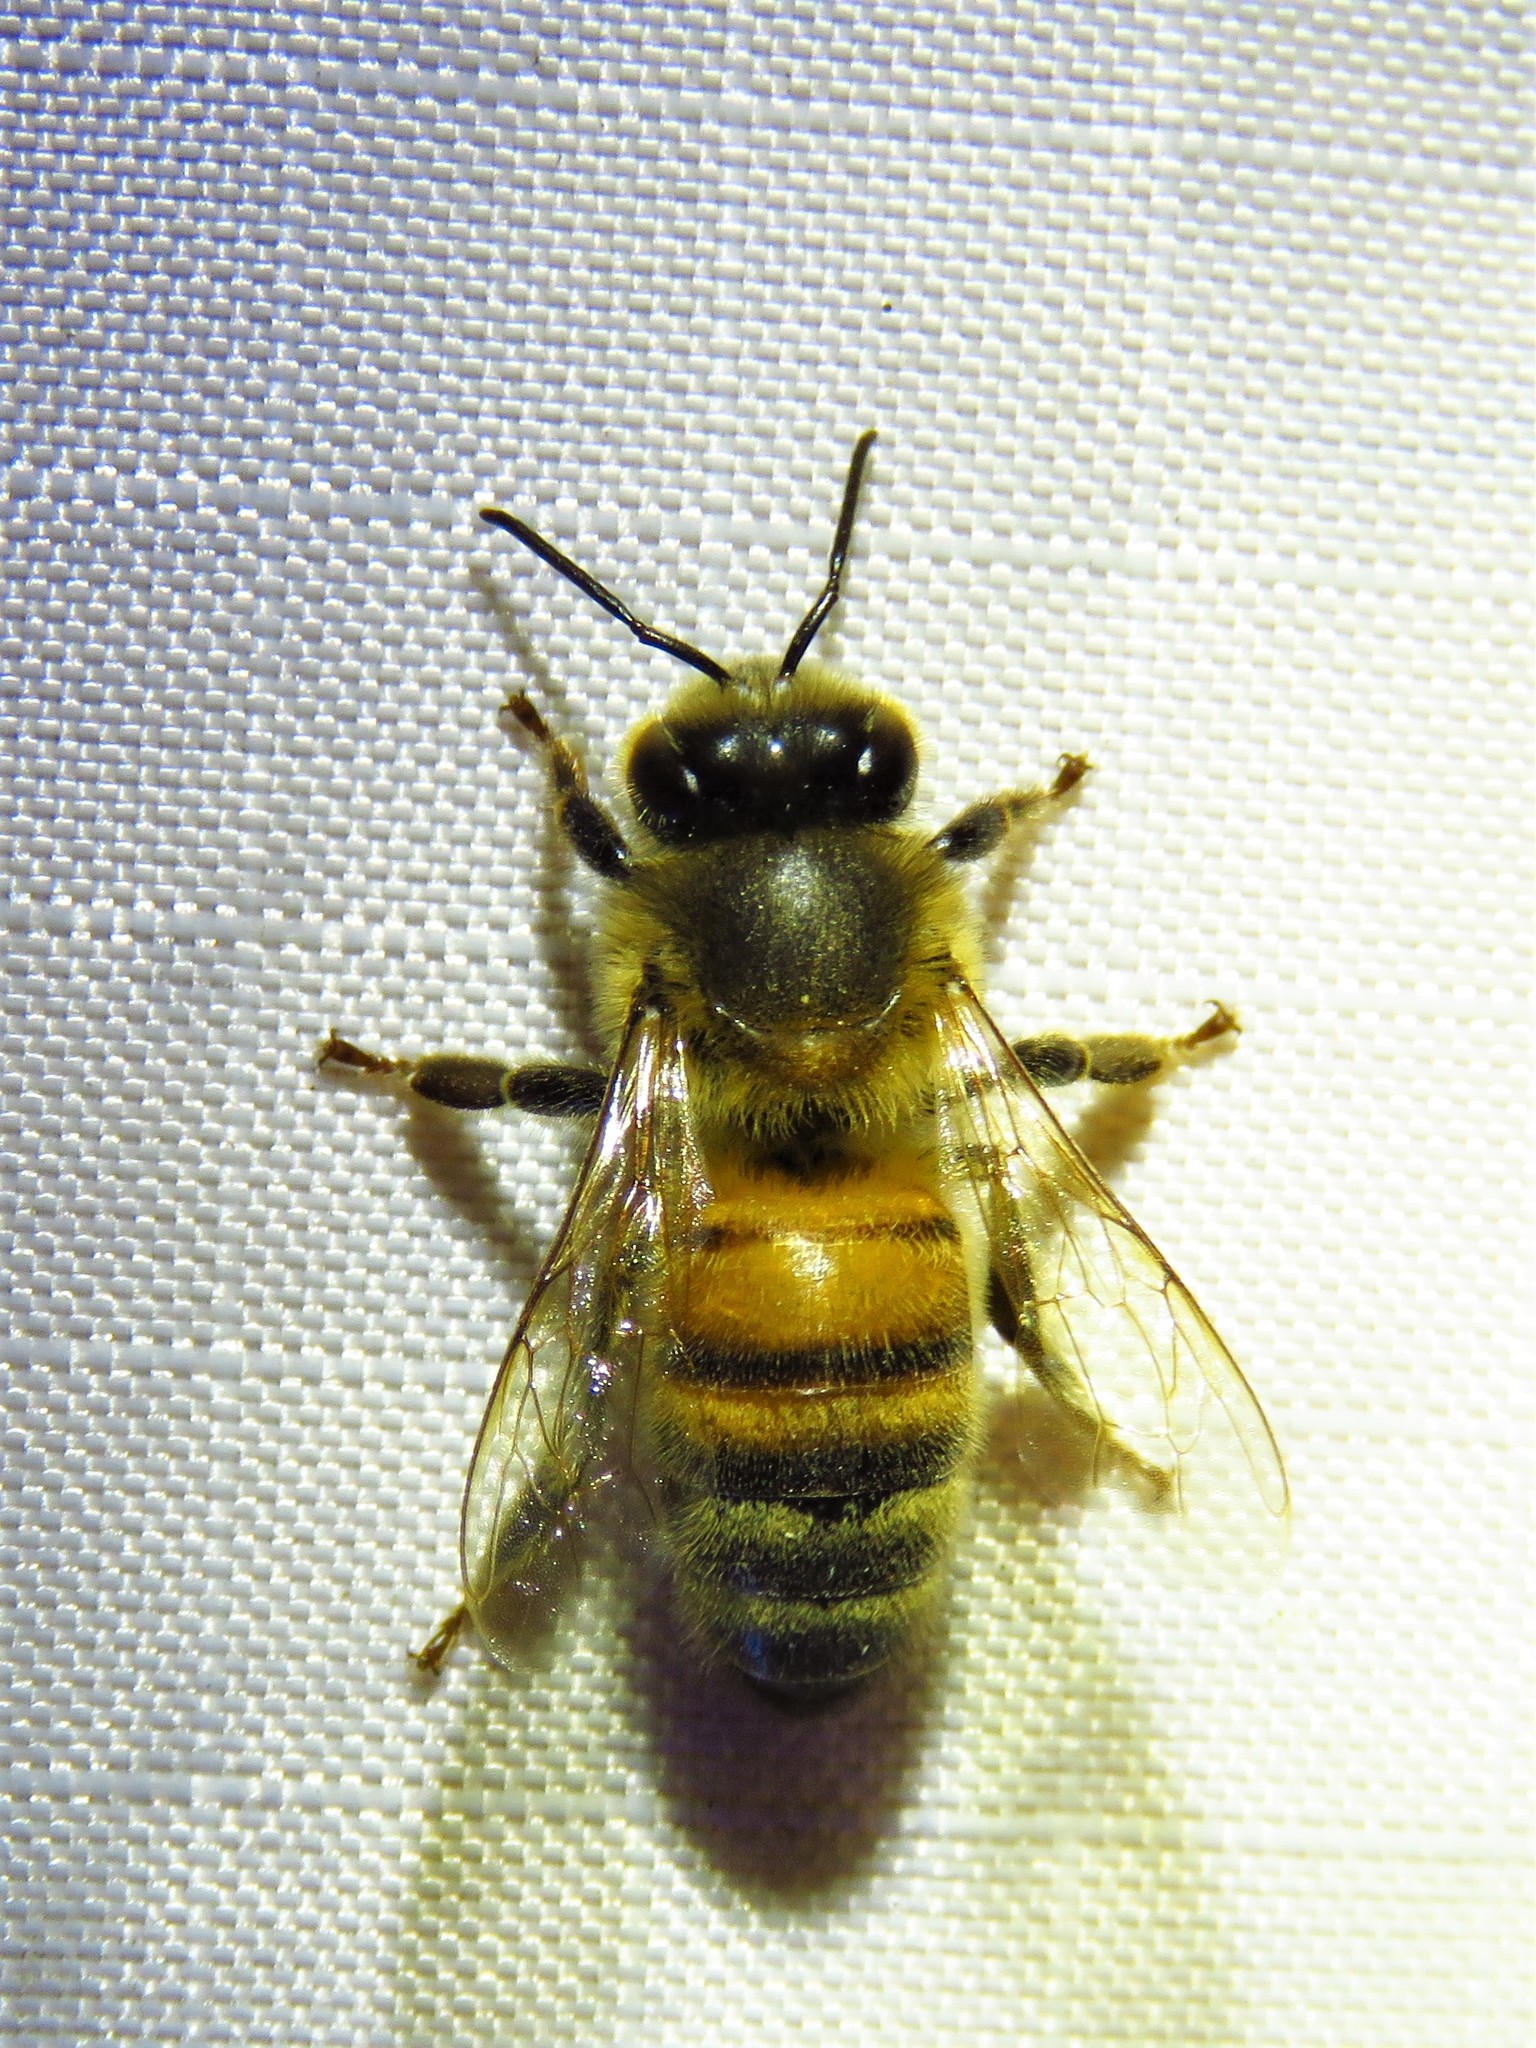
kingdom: Animalia
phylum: Arthropoda
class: Insecta
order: Hymenoptera
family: Apidae
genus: Apis
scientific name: Apis mellifera
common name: Honey bee
